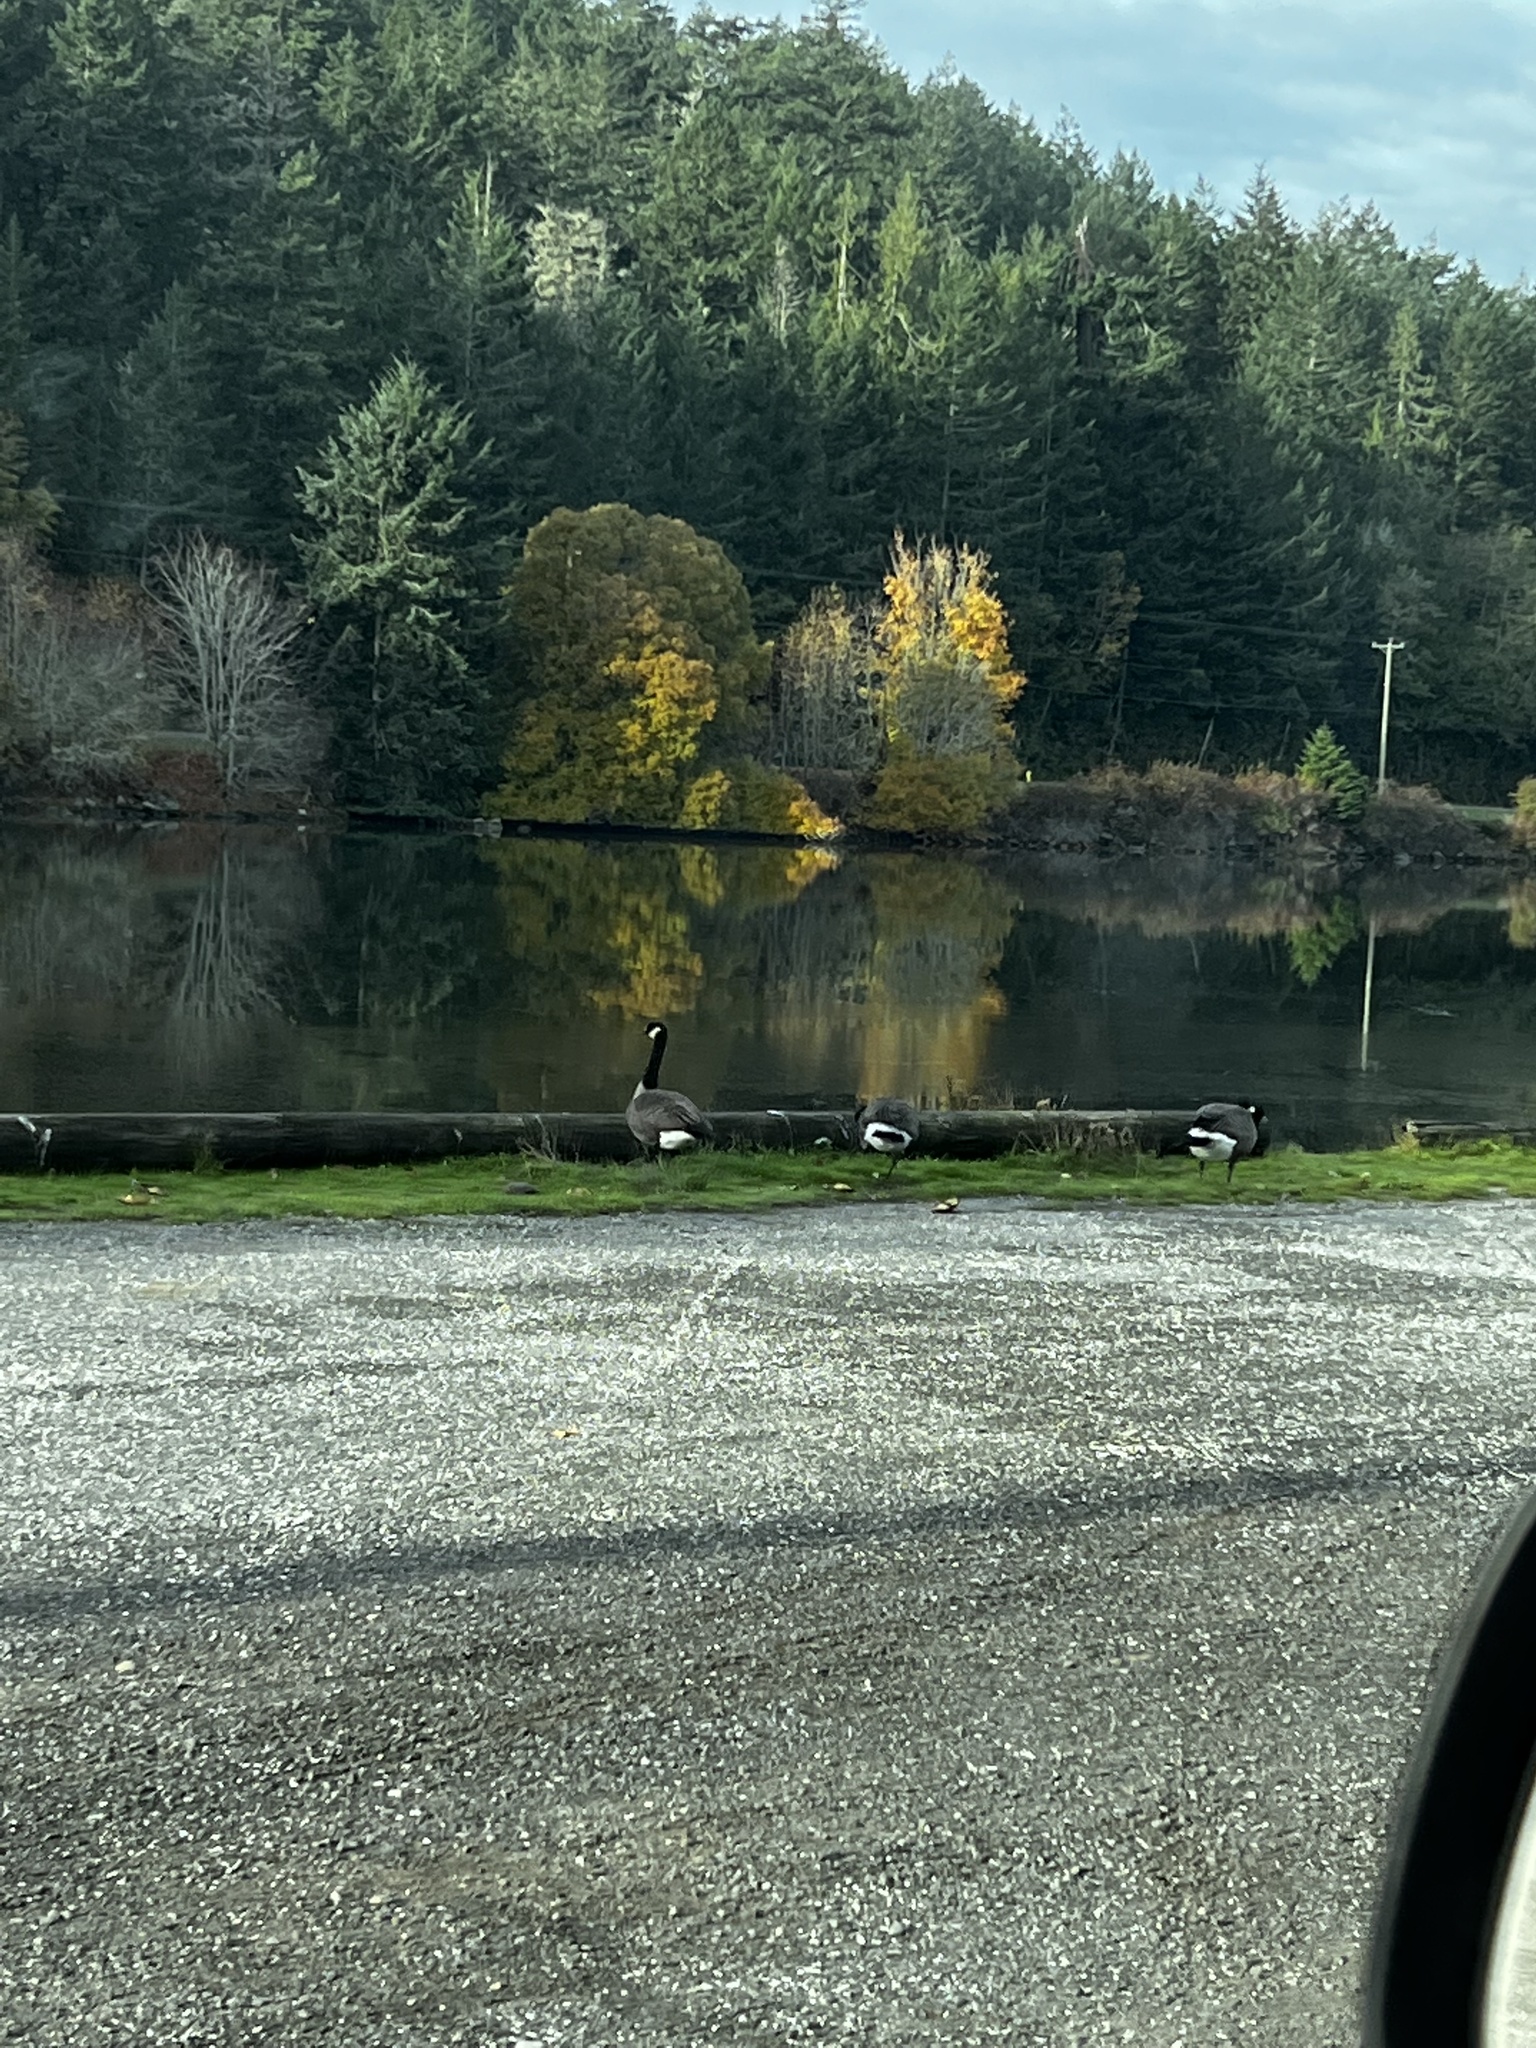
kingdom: Animalia
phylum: Chordata
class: Aves
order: Anseriformes
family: Anatidae
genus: Branta
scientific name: Branta canadensis
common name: Canada goose
